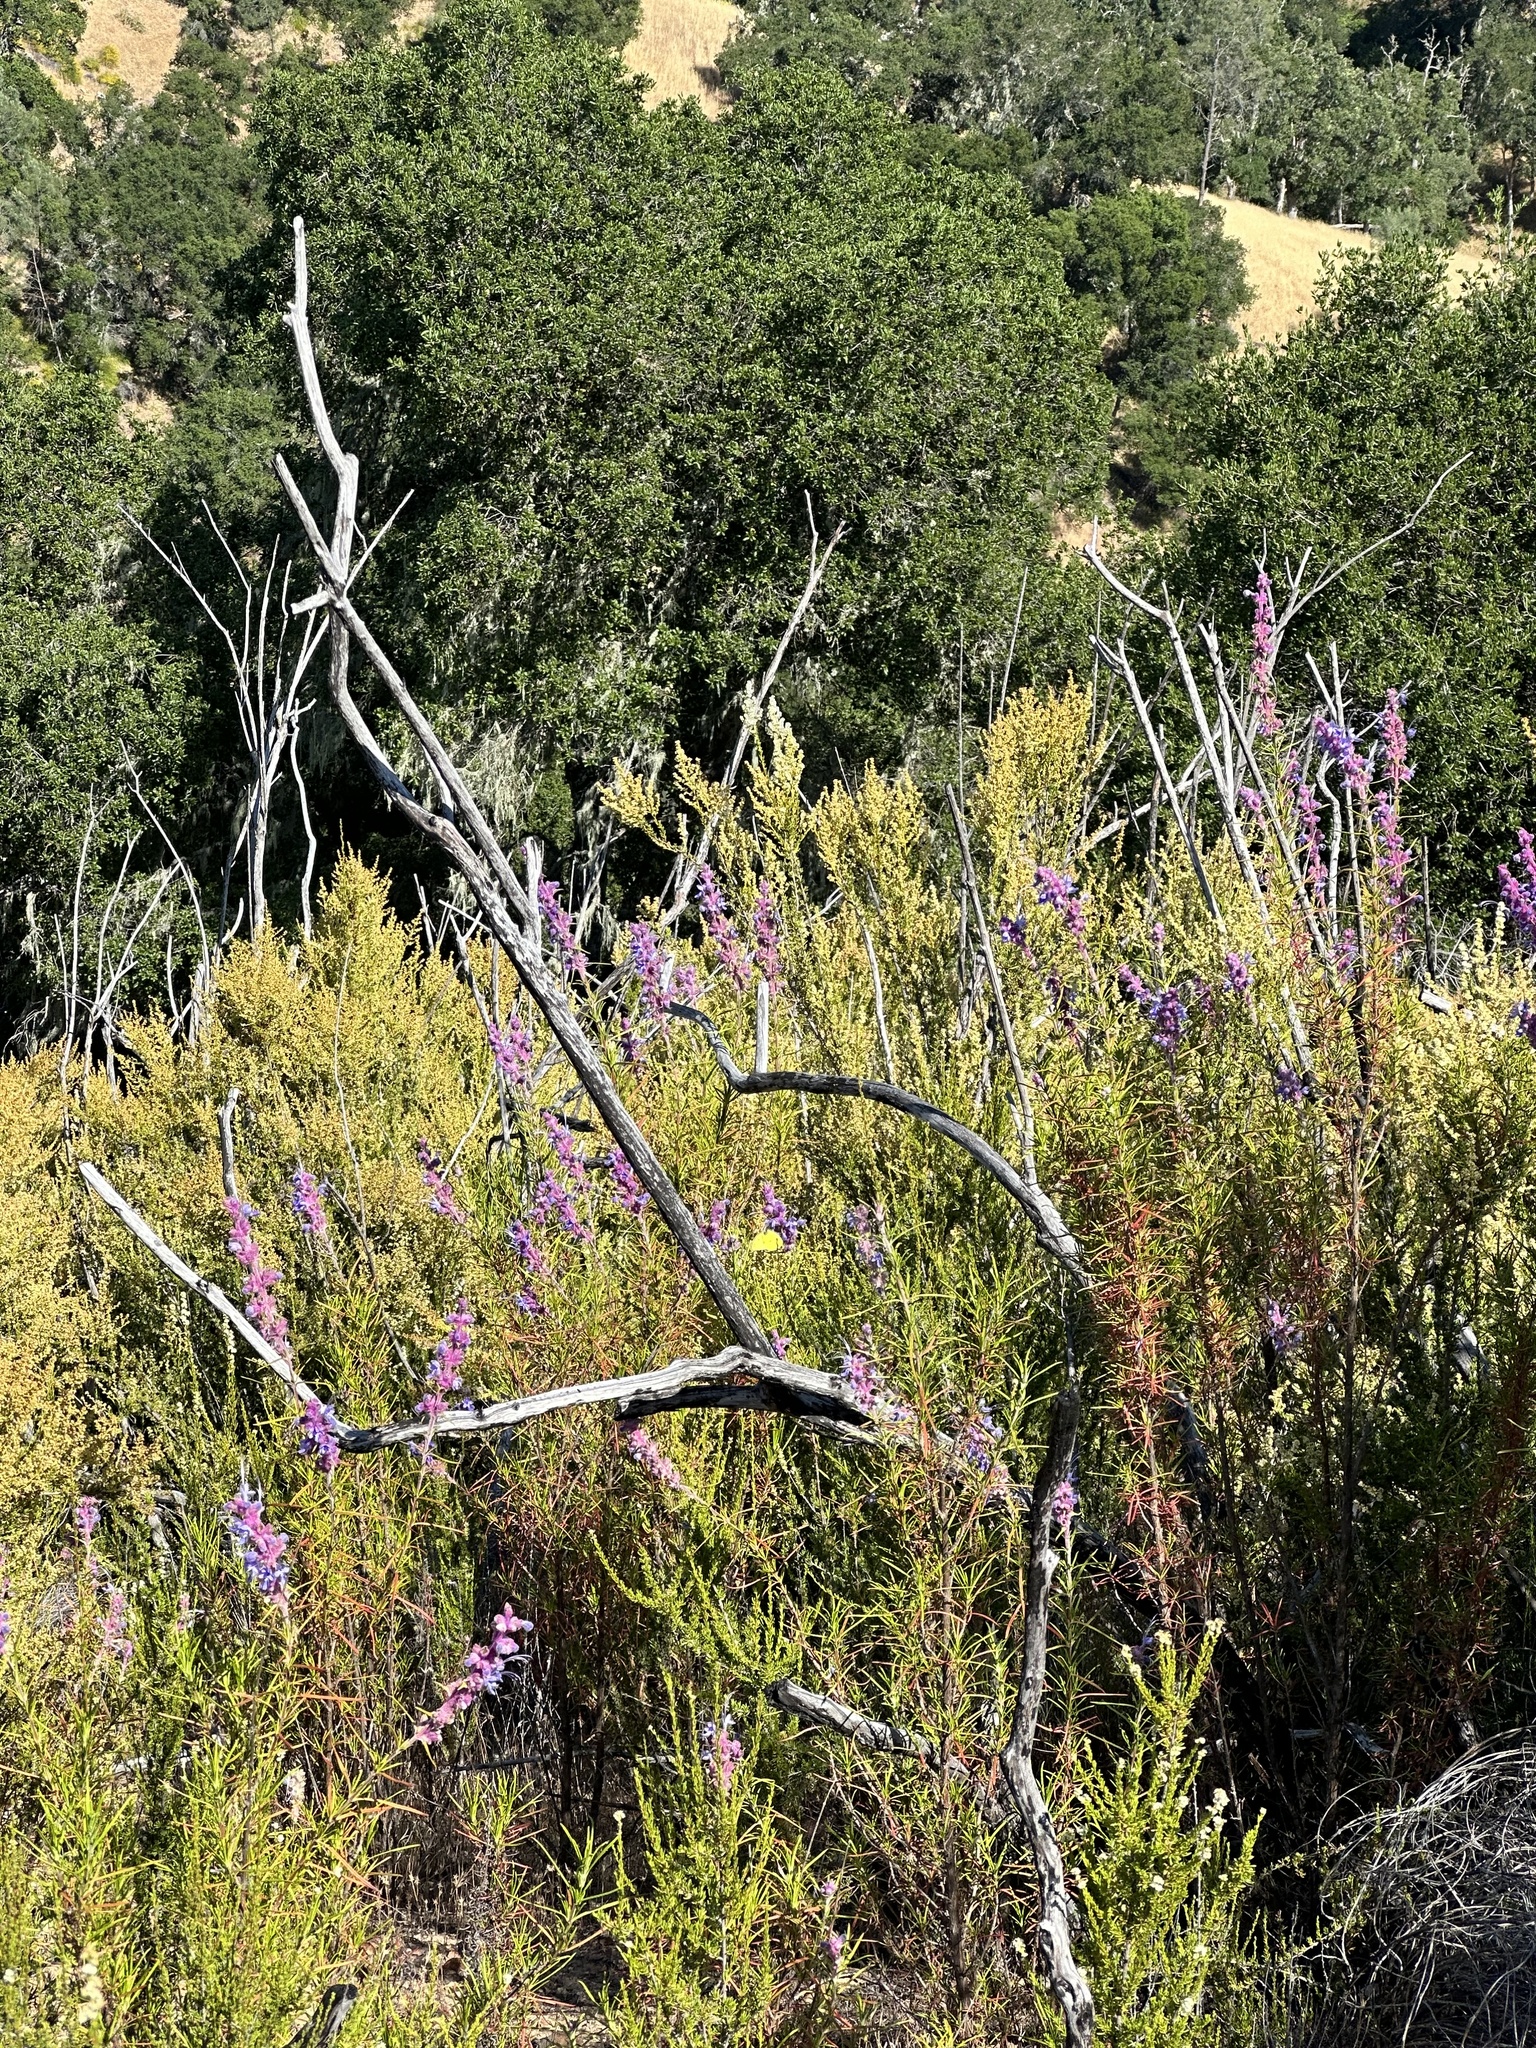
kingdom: Plantae
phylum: Tracheophyta
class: Magnoliopsida
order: Lamiales
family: Lamiaceae
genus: Trichostema
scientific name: Trichostema lanatum
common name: Woolly bluecurls
